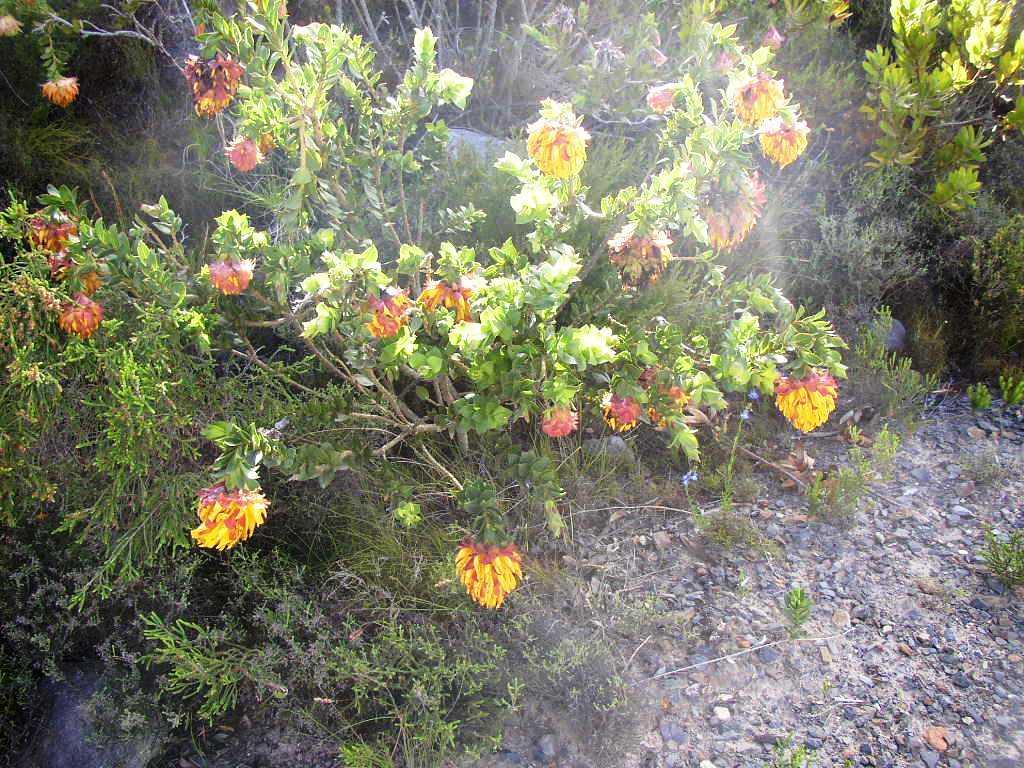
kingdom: Plantae
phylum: Tracheophyta
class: Magnoliopsida
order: Fabales
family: Fabaceae
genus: Liparia
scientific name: Liparia splendens
